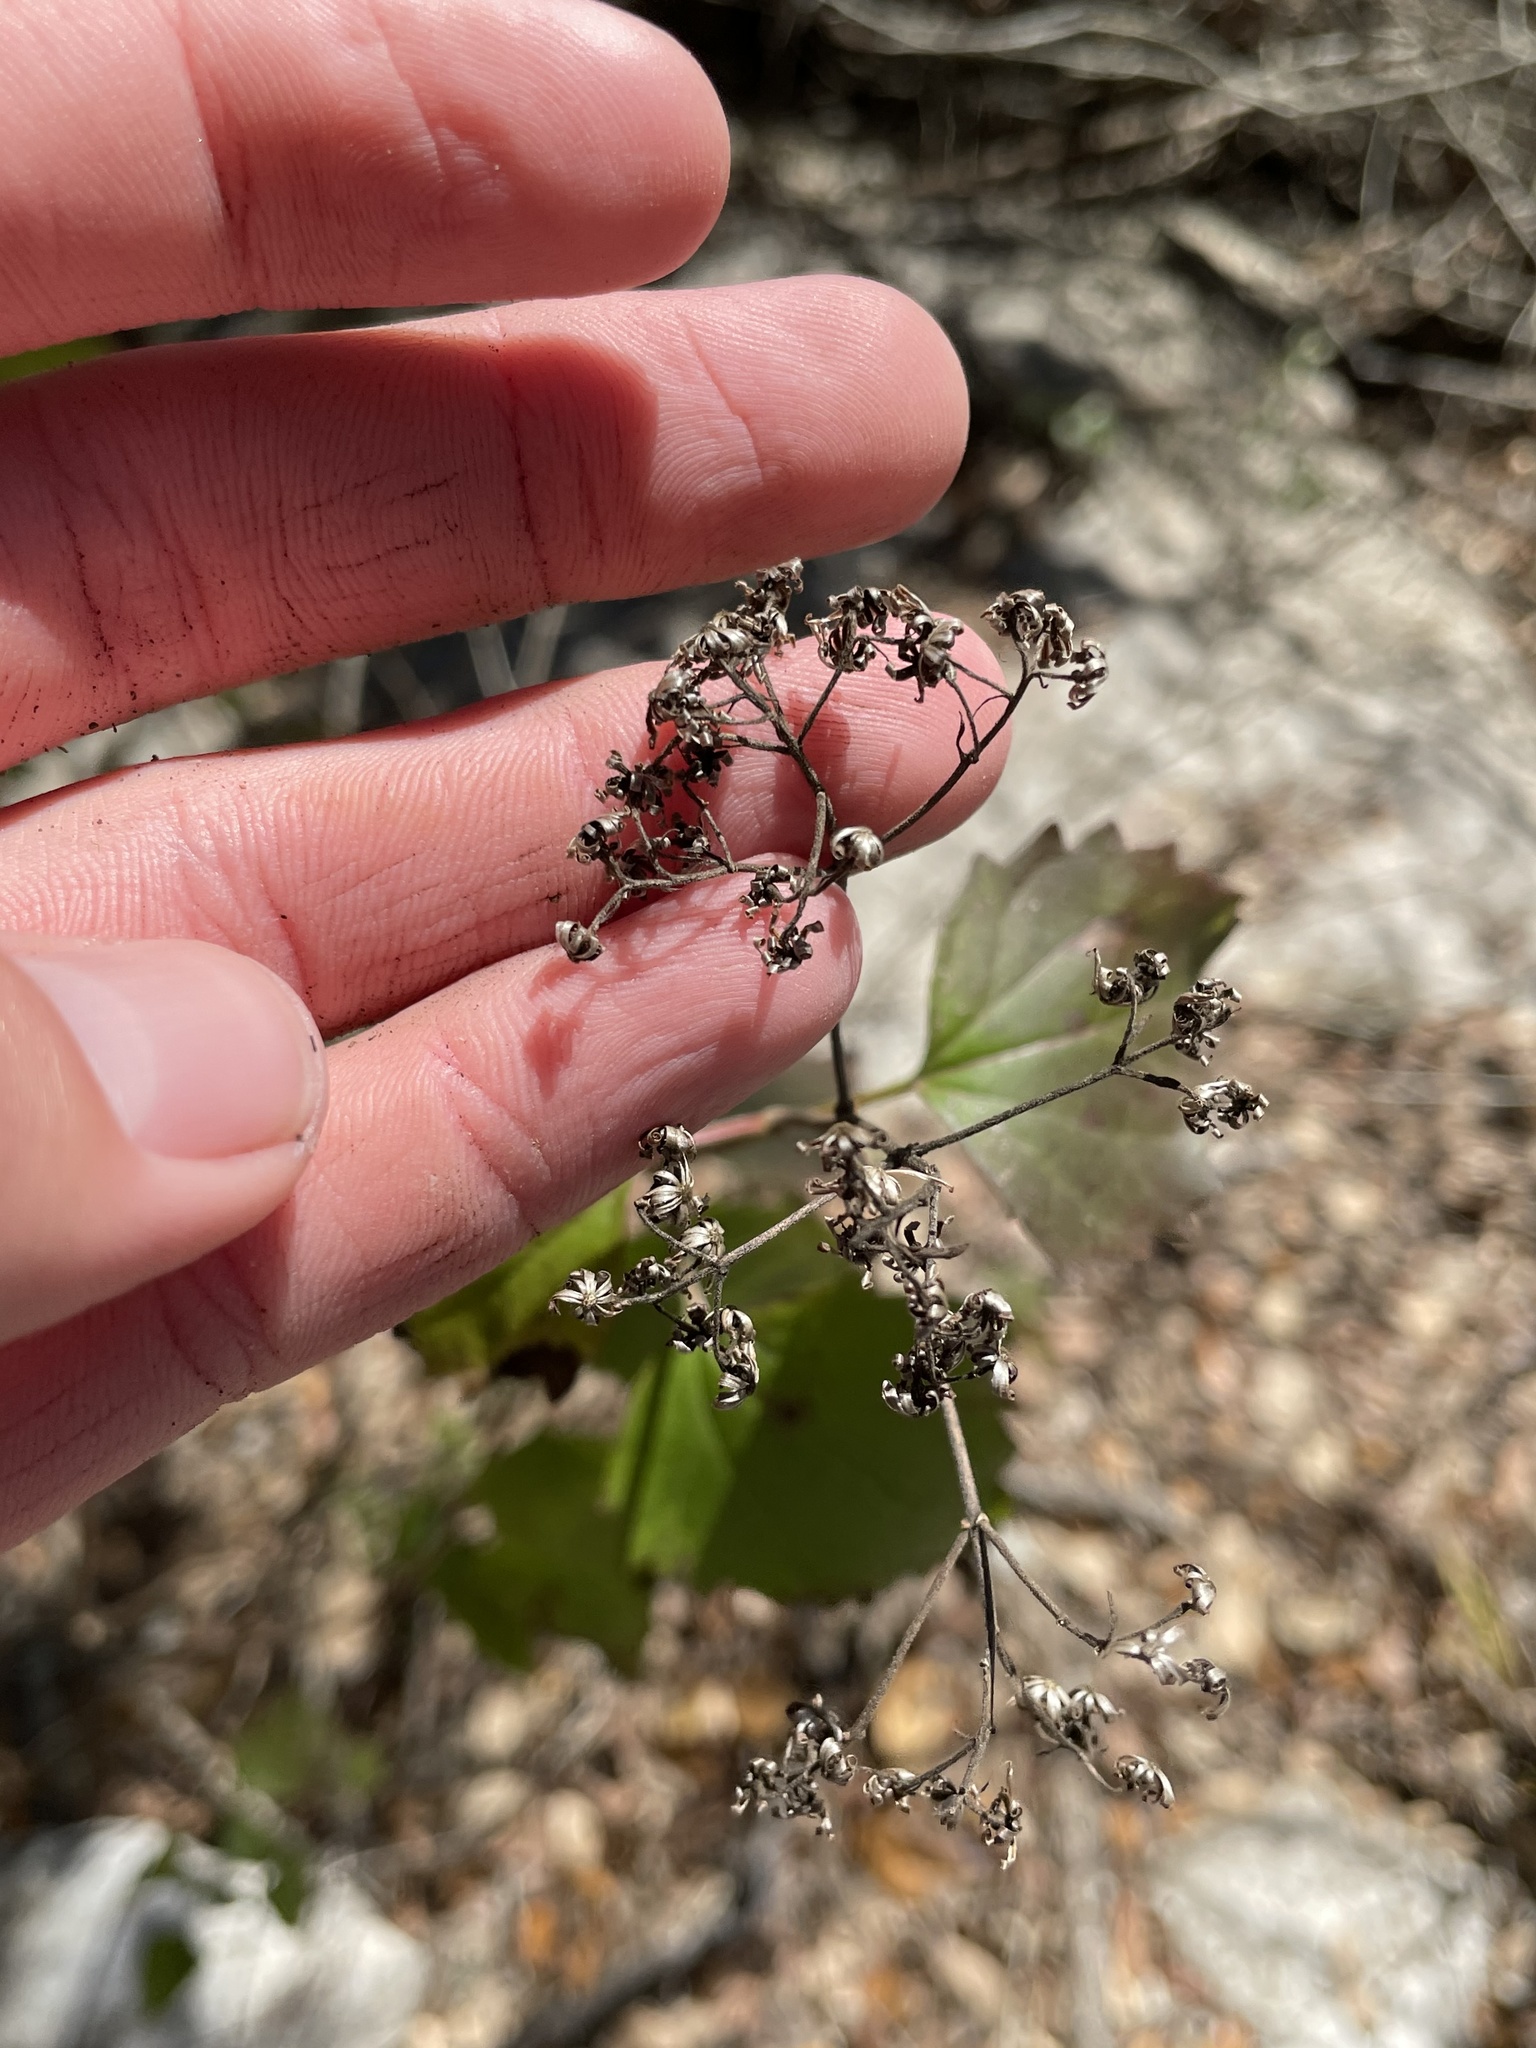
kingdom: Plantae
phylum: Tracheophyta
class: Magnoliopsida
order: Asterales
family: Asteraceae
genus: Ageratina
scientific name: Ageratina havanensis
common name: Havana snakeroot
